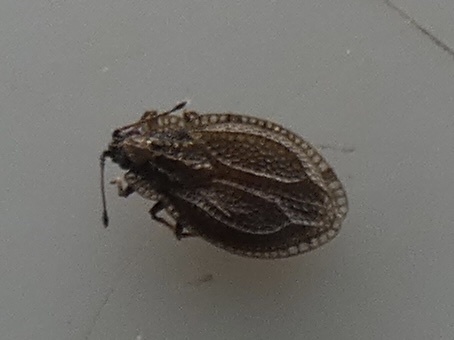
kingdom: Animalia
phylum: Arthropoda
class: Insecta
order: Hemiptera
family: Tingidae
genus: Acalypta
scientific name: Acalypta parvula
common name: Lace bug
